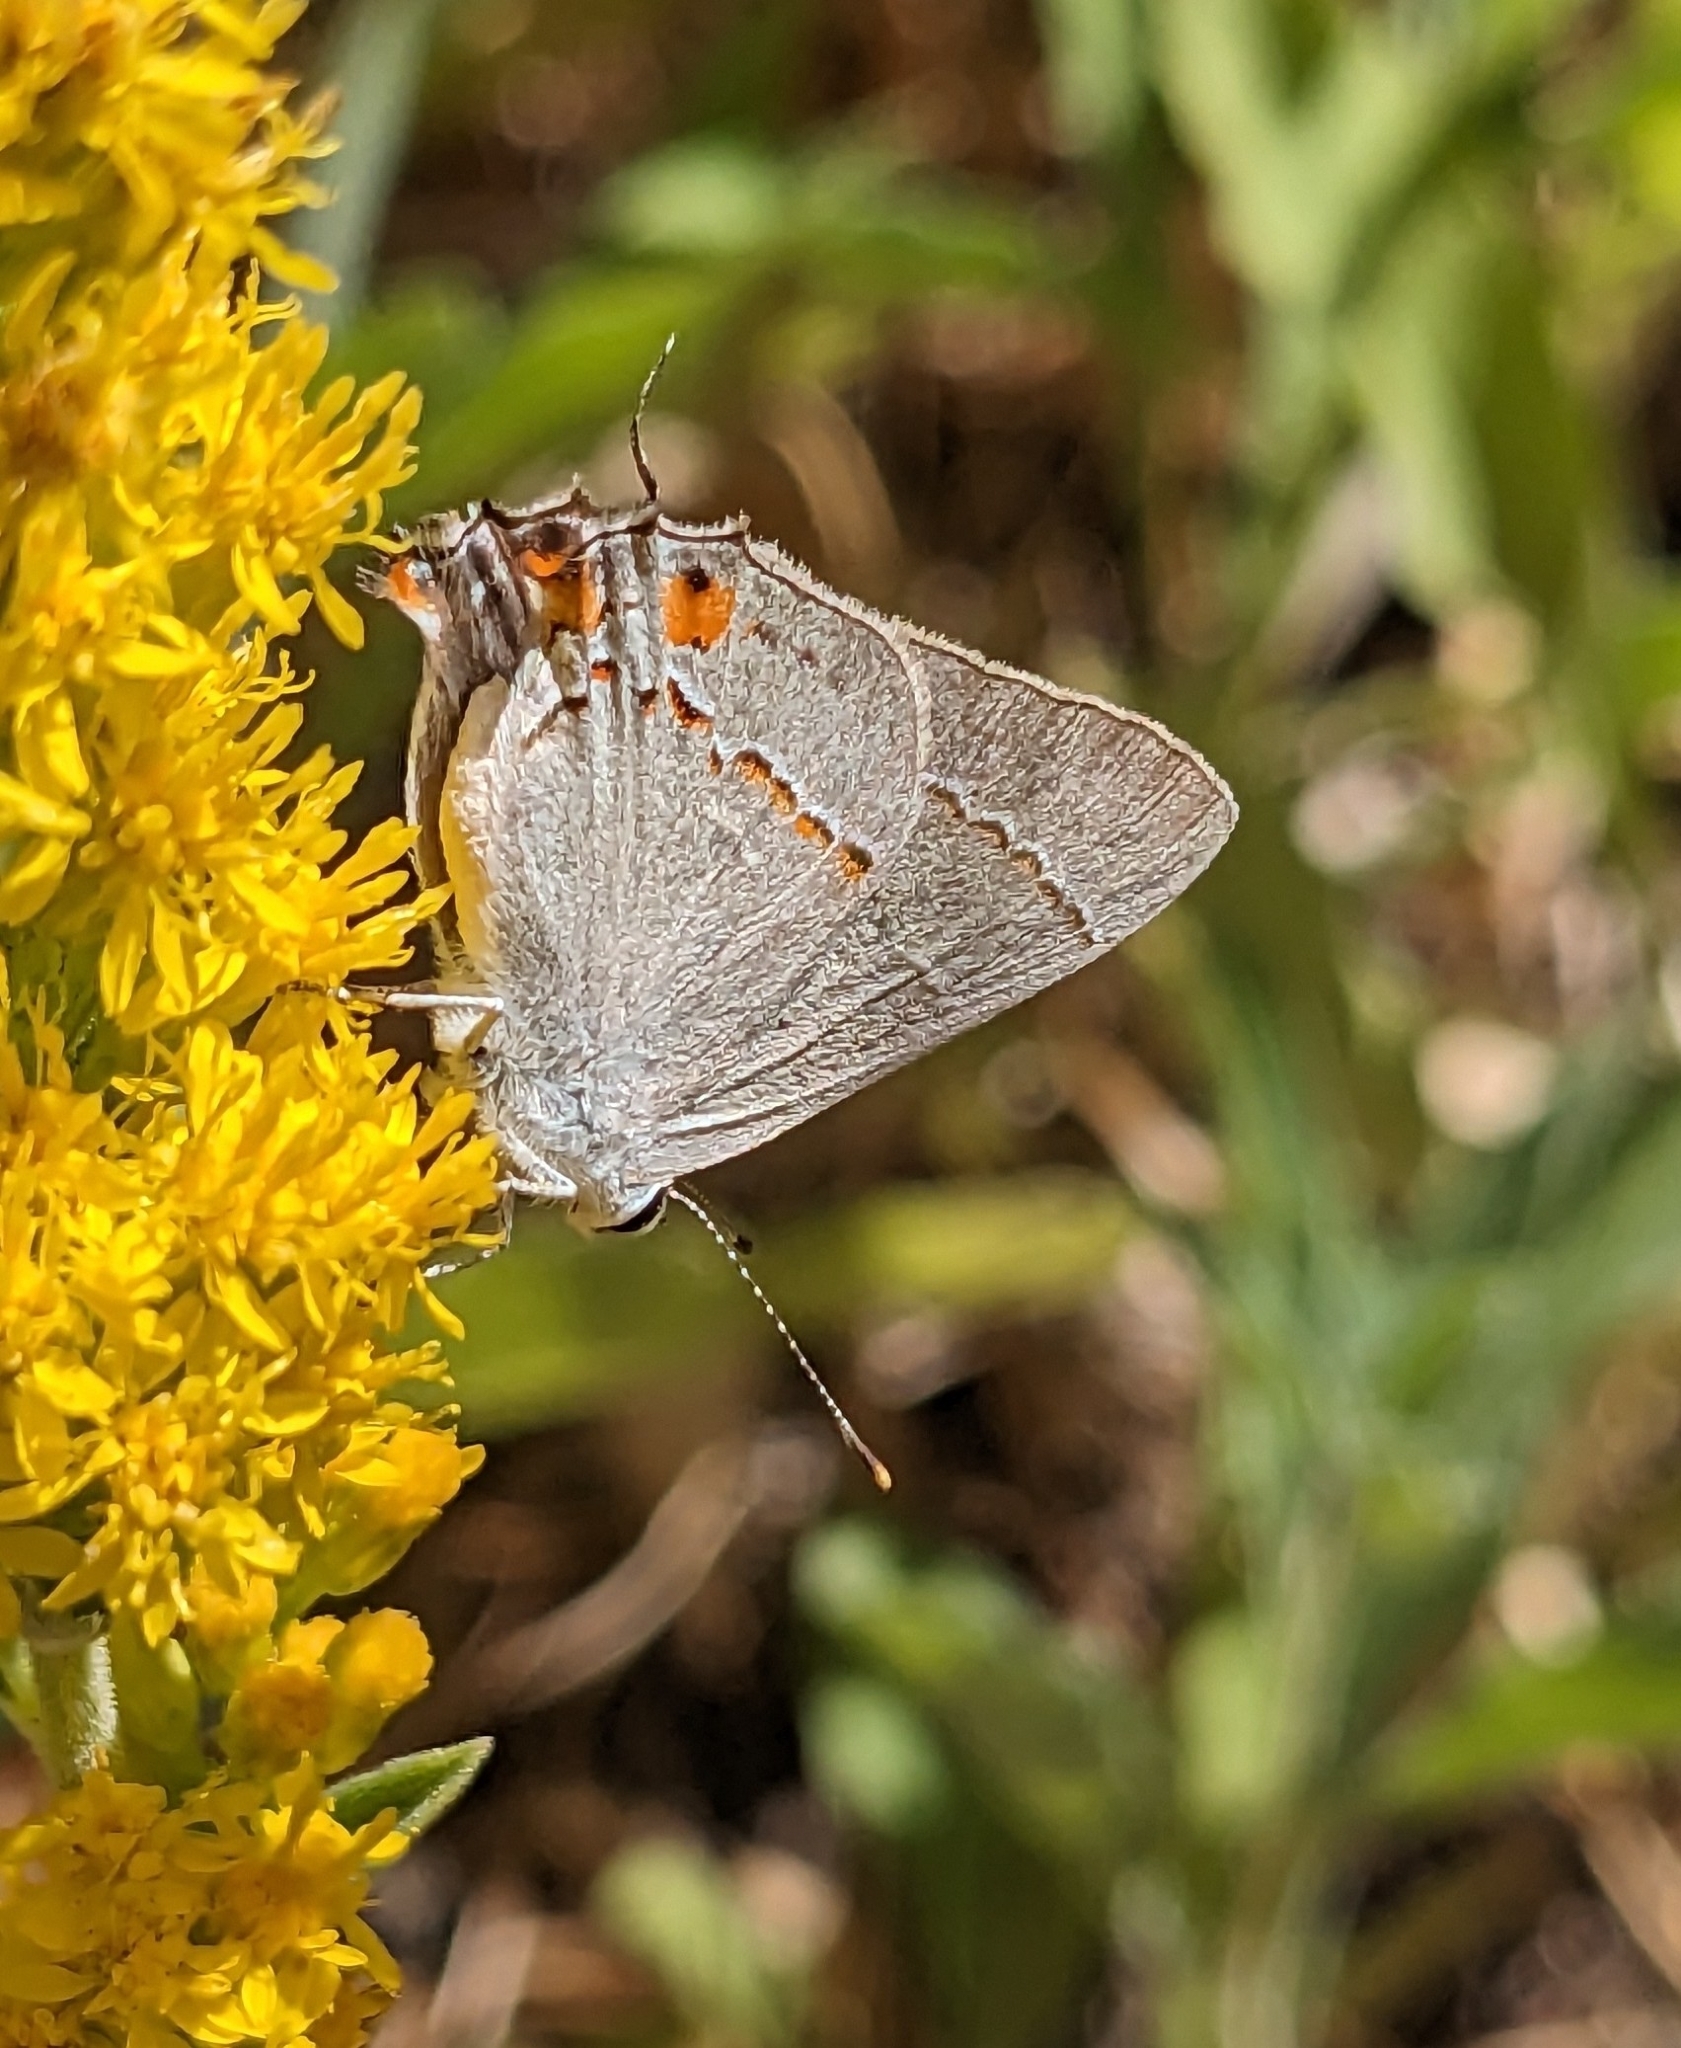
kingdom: Animalia
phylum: Arthropoda
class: Insecta
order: Lepidoptera
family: Lycaenidae
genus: Strymon
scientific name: Strymon melinus
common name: Gray hairstreak
